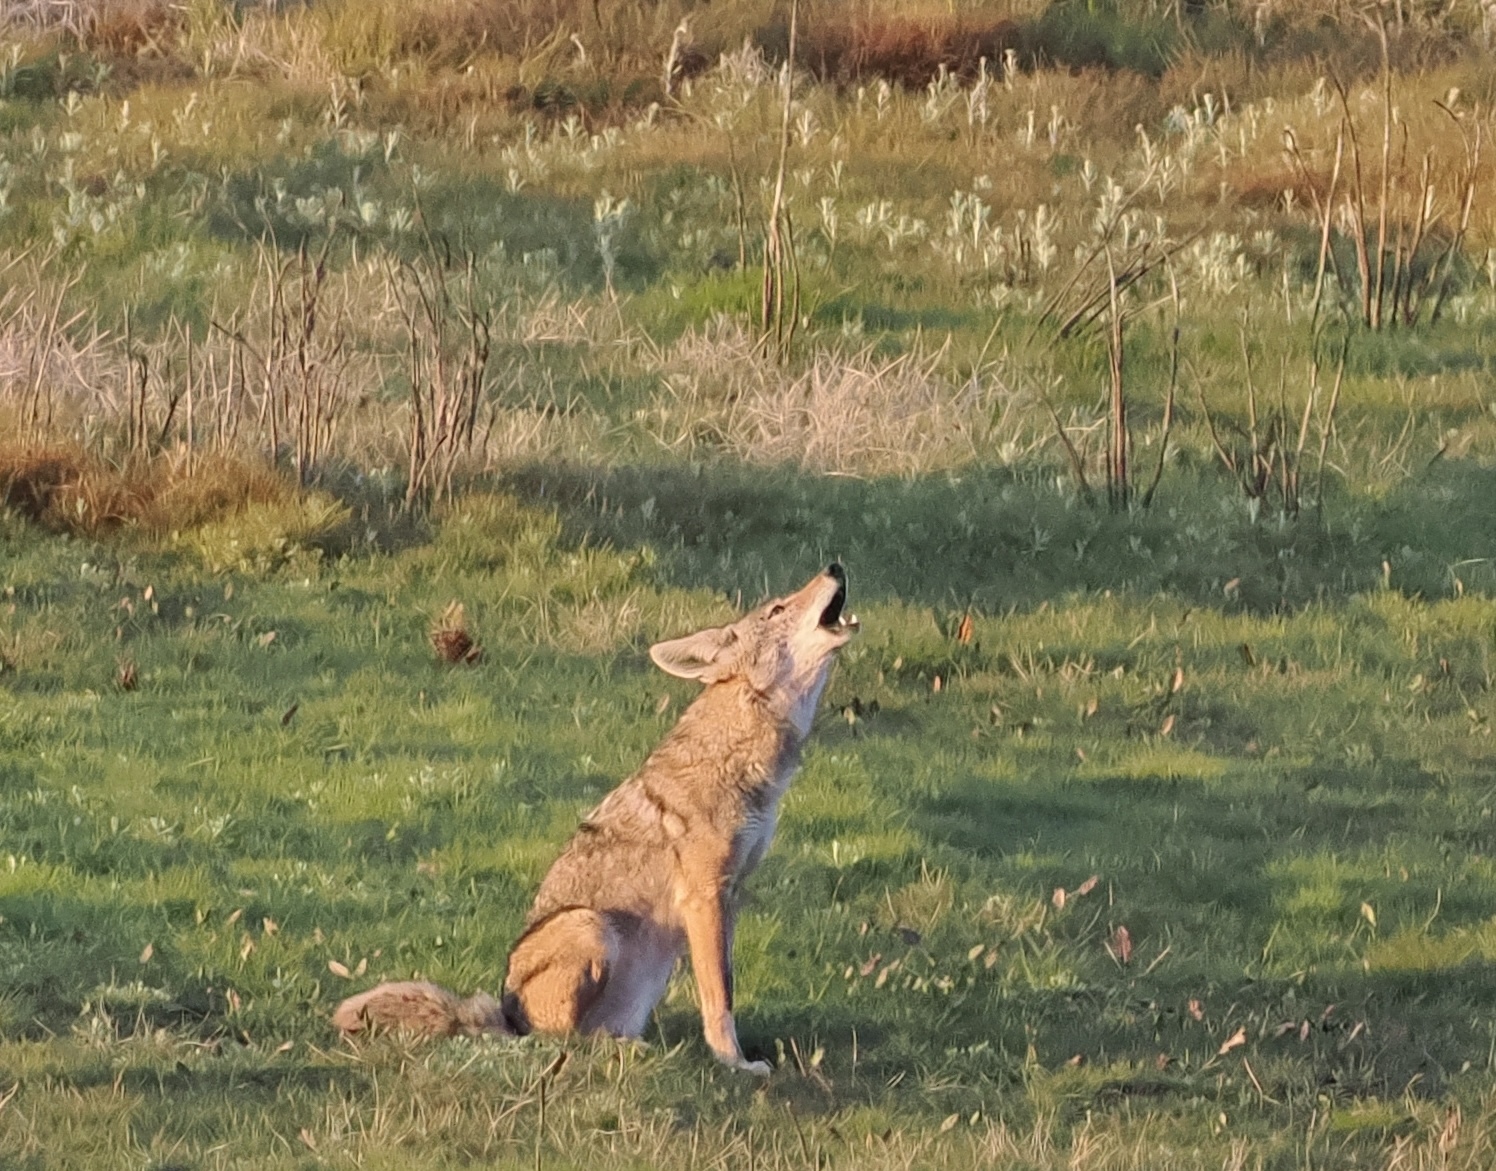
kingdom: Animalia
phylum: Chordata
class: Mammalia
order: Carnivora
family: Canidae
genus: Canis
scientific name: Canis latrans
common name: Coyote
